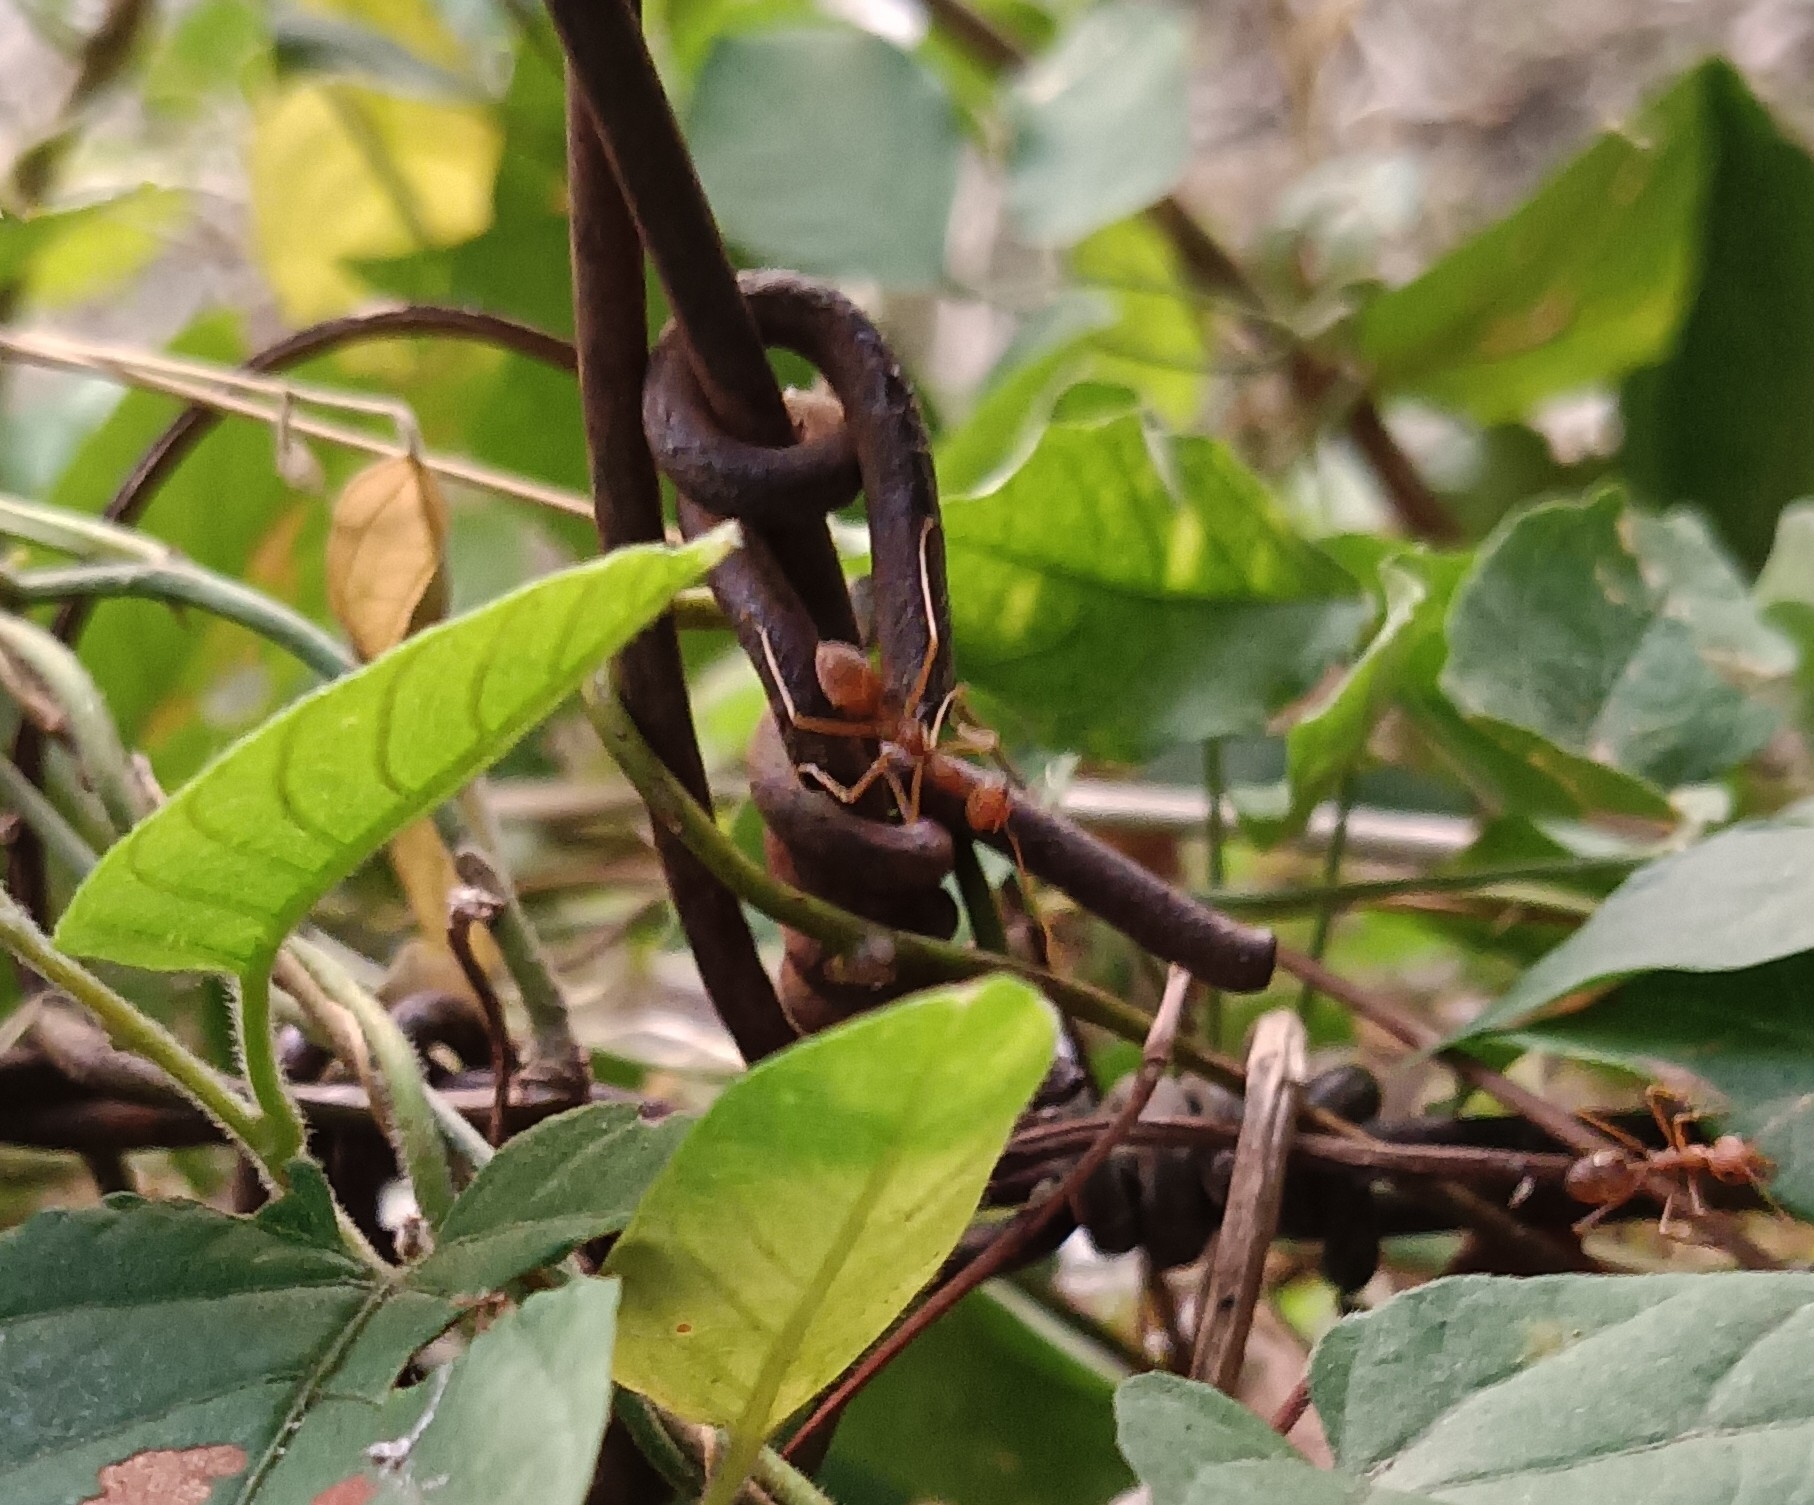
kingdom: Animalia
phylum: Arthropoda
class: Insecta
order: Hymenoptera
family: Formicidae
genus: Oecophylla
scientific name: Oecophylla smaragdina
